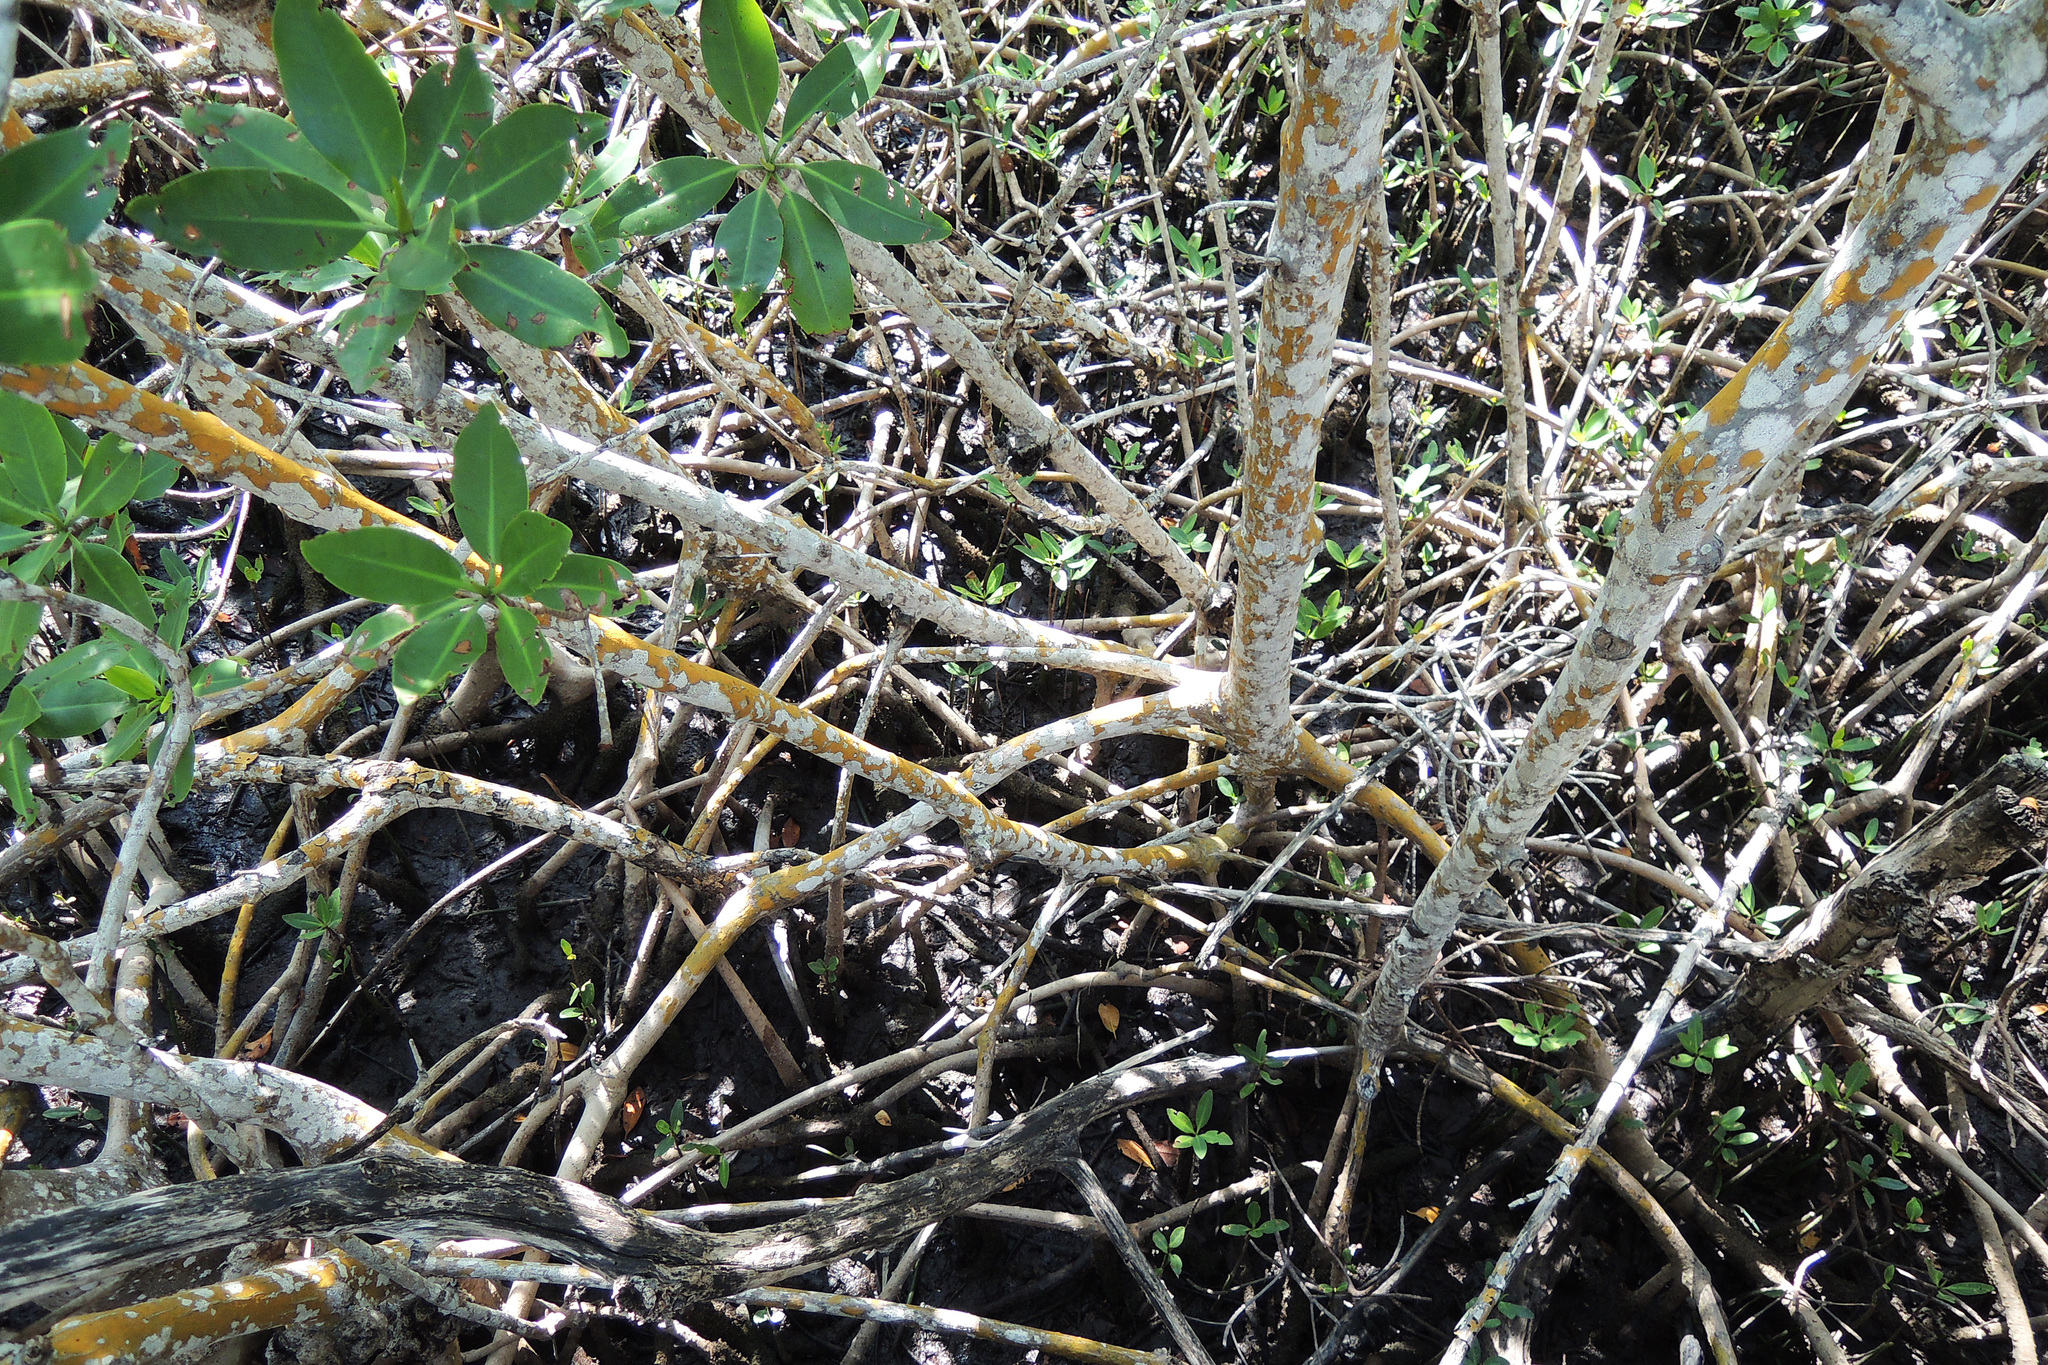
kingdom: Plantae
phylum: Tracheophyta
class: Magnoliopsida
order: Malpighiales
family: Rhizophoraceae
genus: Rhizophora
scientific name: Rhizophora mangle
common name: Red mangrove
